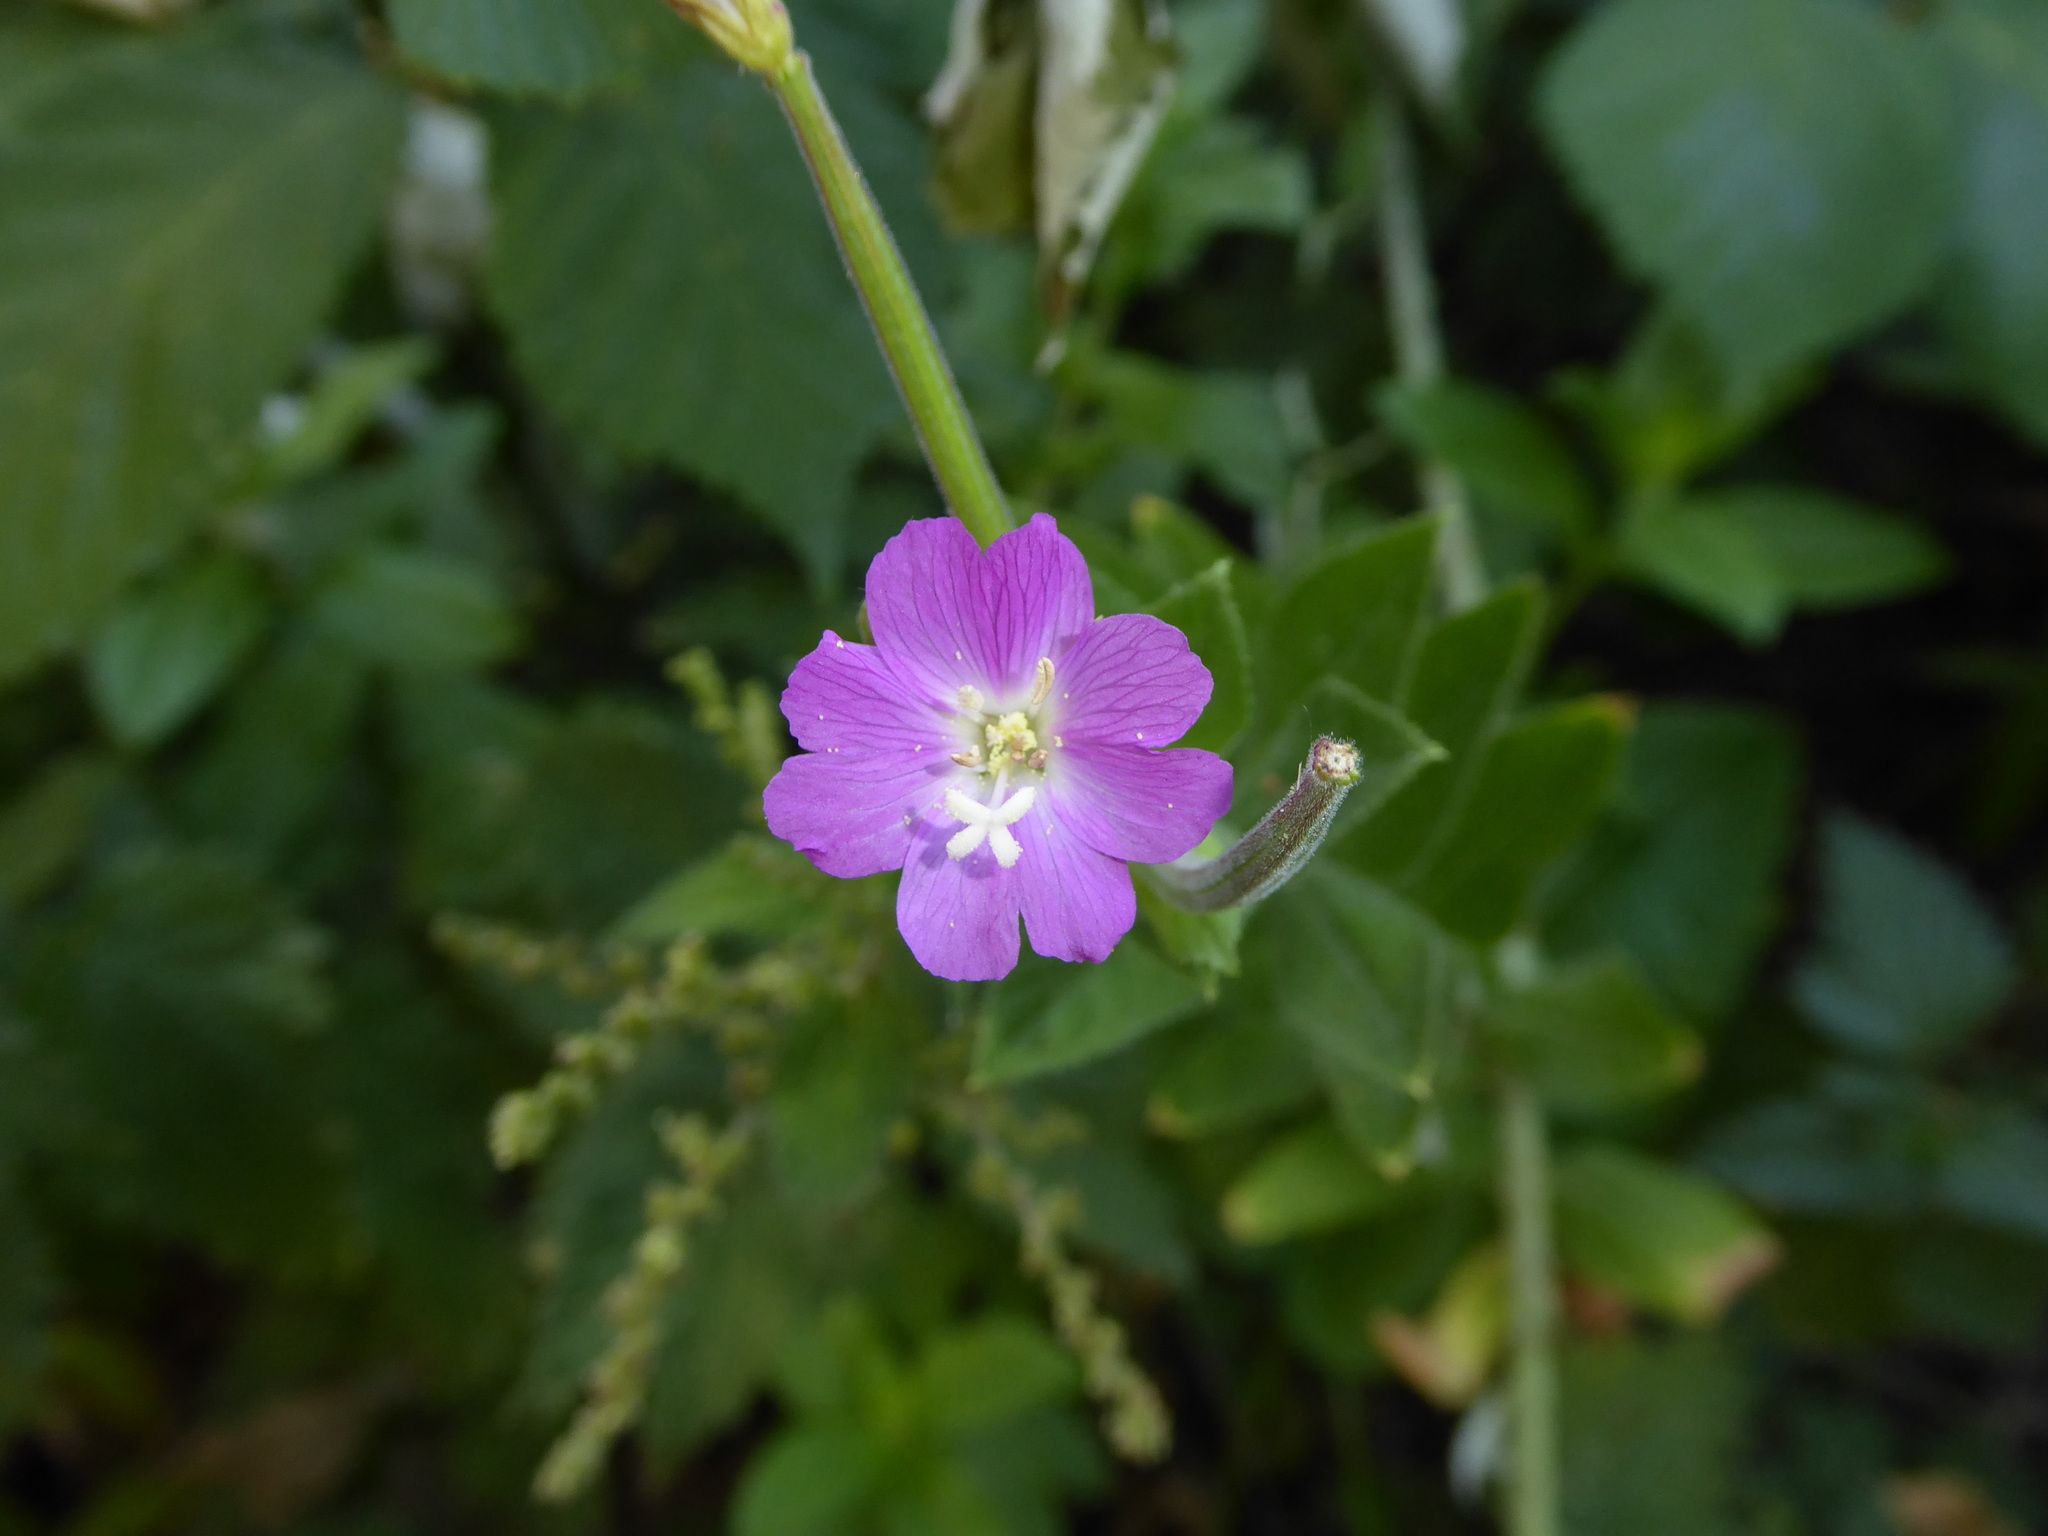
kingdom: Plantae
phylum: Tracheophyta
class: Magnoliopsida
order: Myrtales
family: Onagraceae
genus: Epilobium
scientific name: Epilobium hirsutum
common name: Great willowherb
